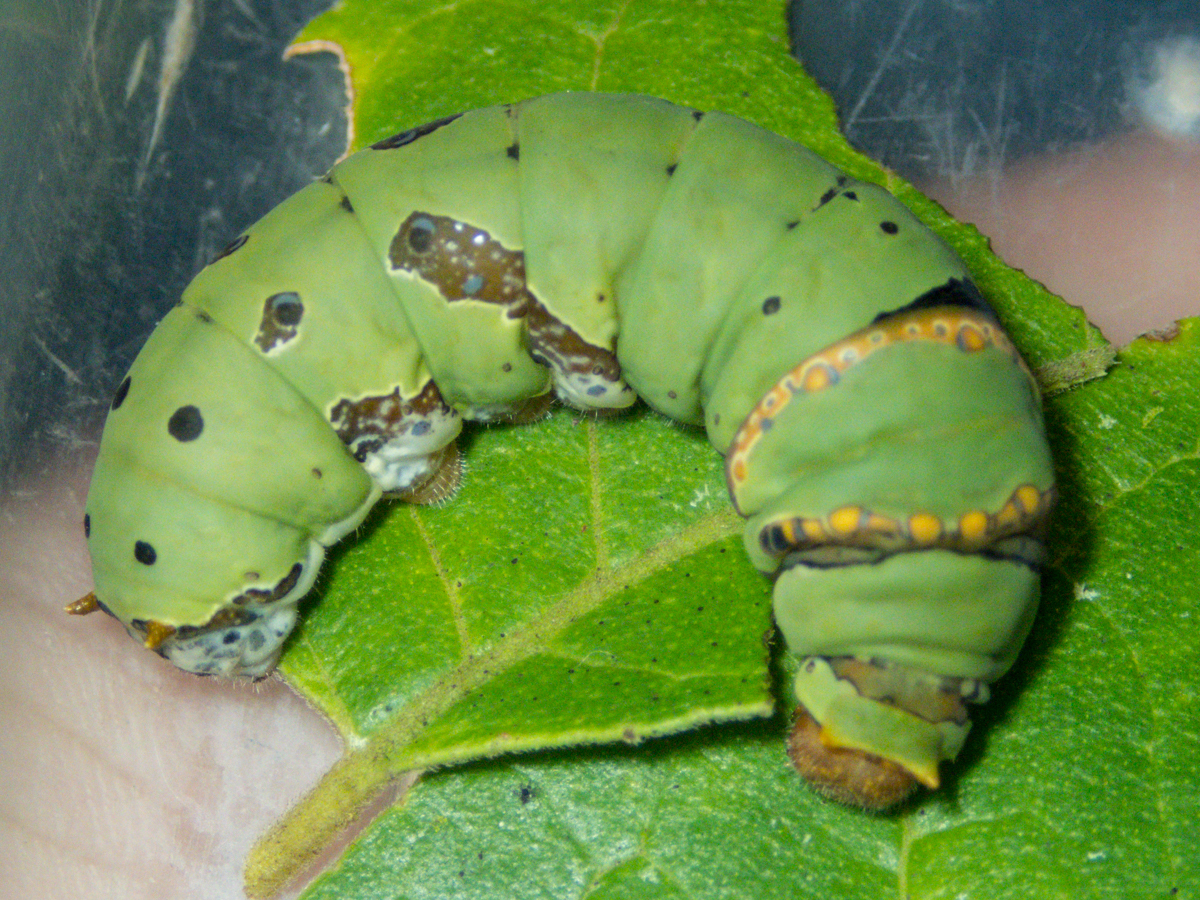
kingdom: Animalia
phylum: Arthropoda
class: Insecta
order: Lepidoptera
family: Papilionidae
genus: Papilio
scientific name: Papilio demoleus
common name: Lime butterfly
